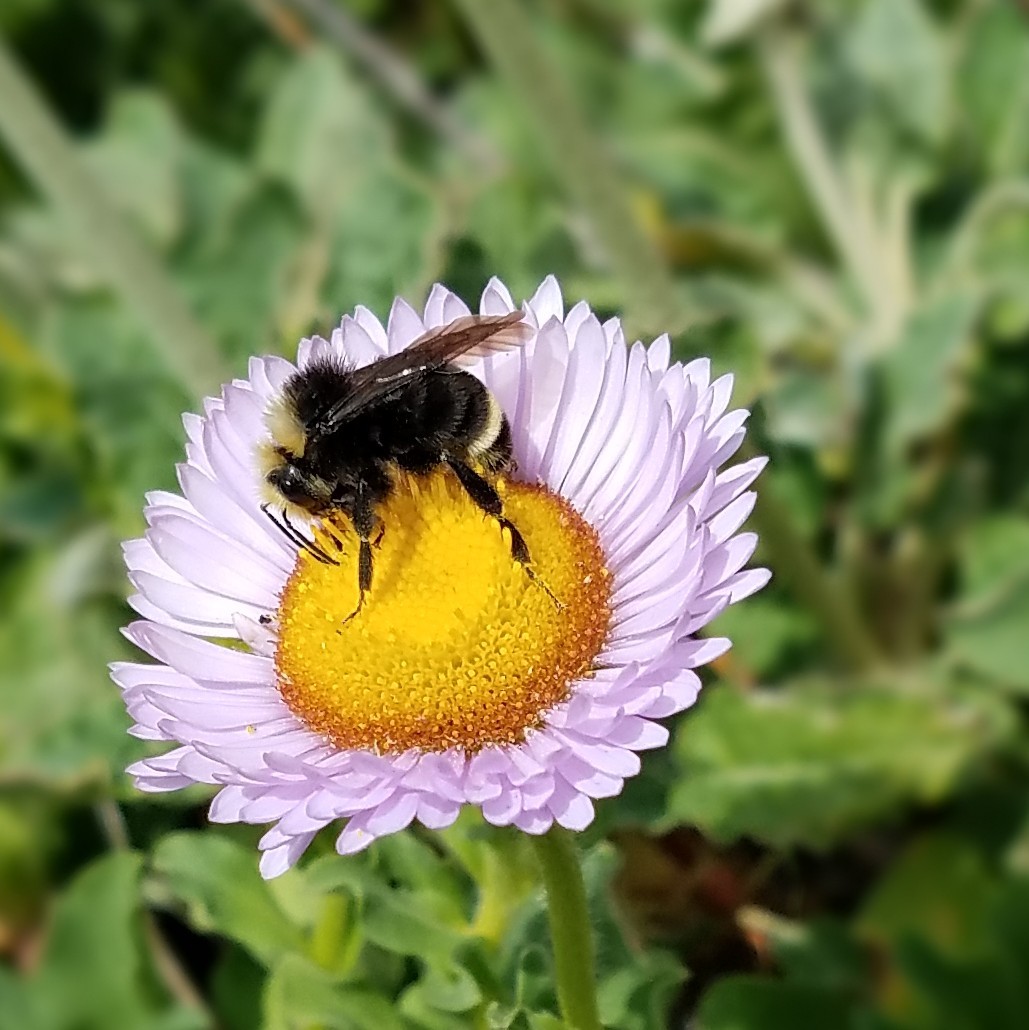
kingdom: Animalia
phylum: Arthropoda
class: Insecta
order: Hymenoptera
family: Apidae
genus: Pyrobombus
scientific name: Pyrobombus
